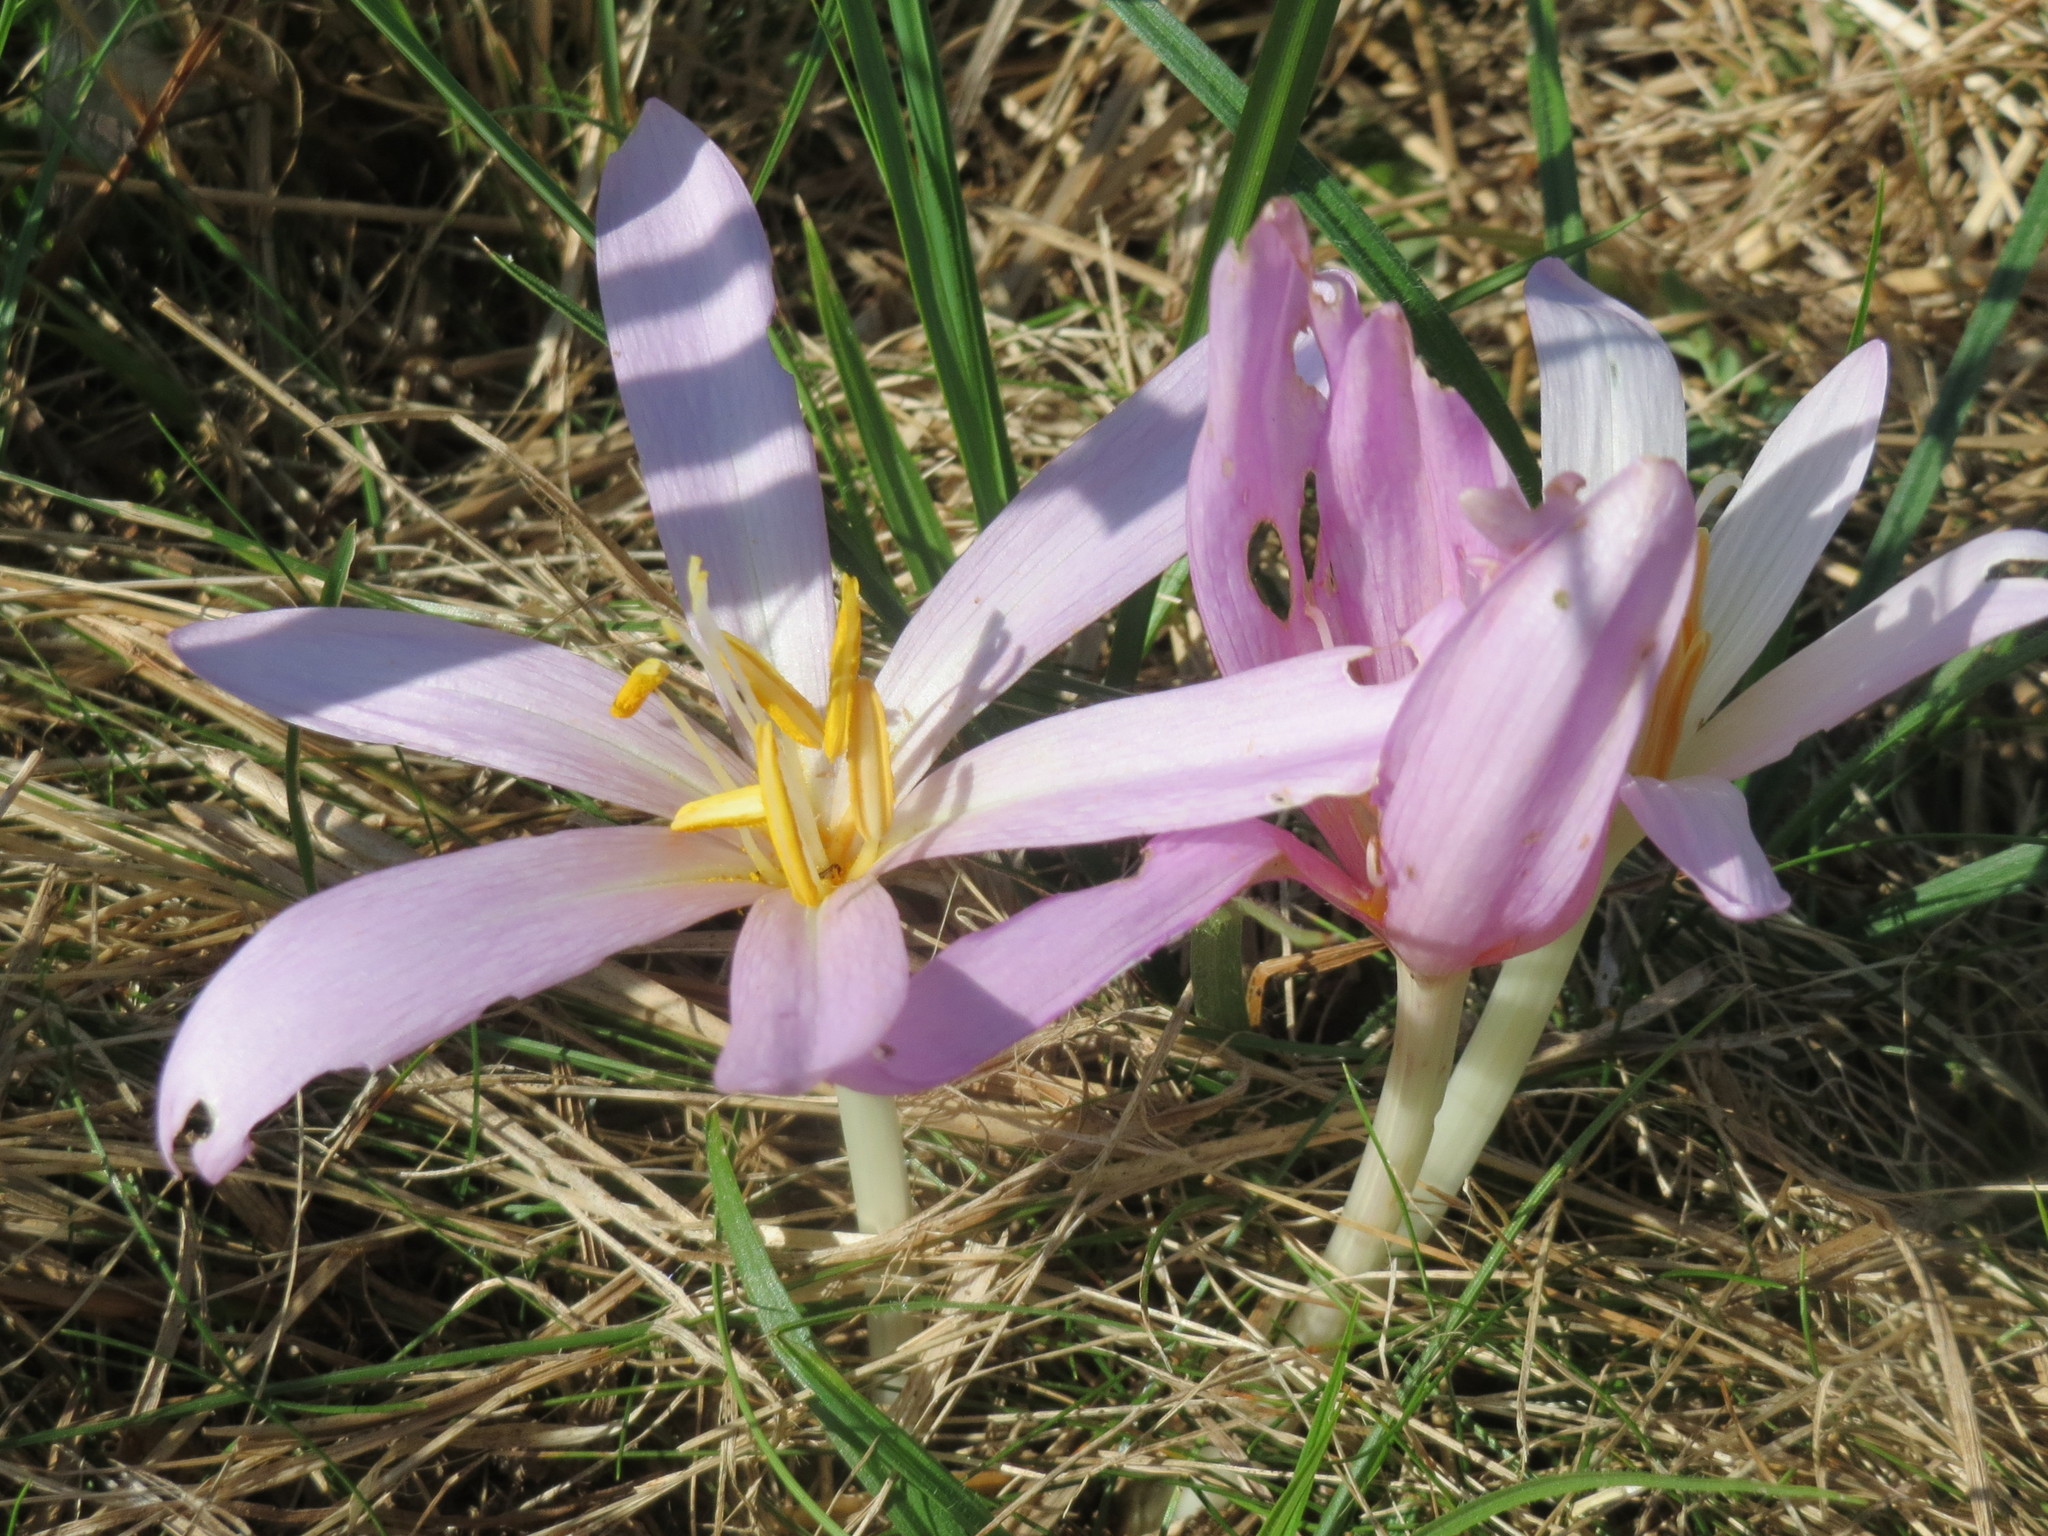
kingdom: Plantae
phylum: Tracheophyta
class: Liliopsida
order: Liliales
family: Colchicaceae
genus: Colchicum
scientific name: Colchicum autumnale
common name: Autumn crocus
